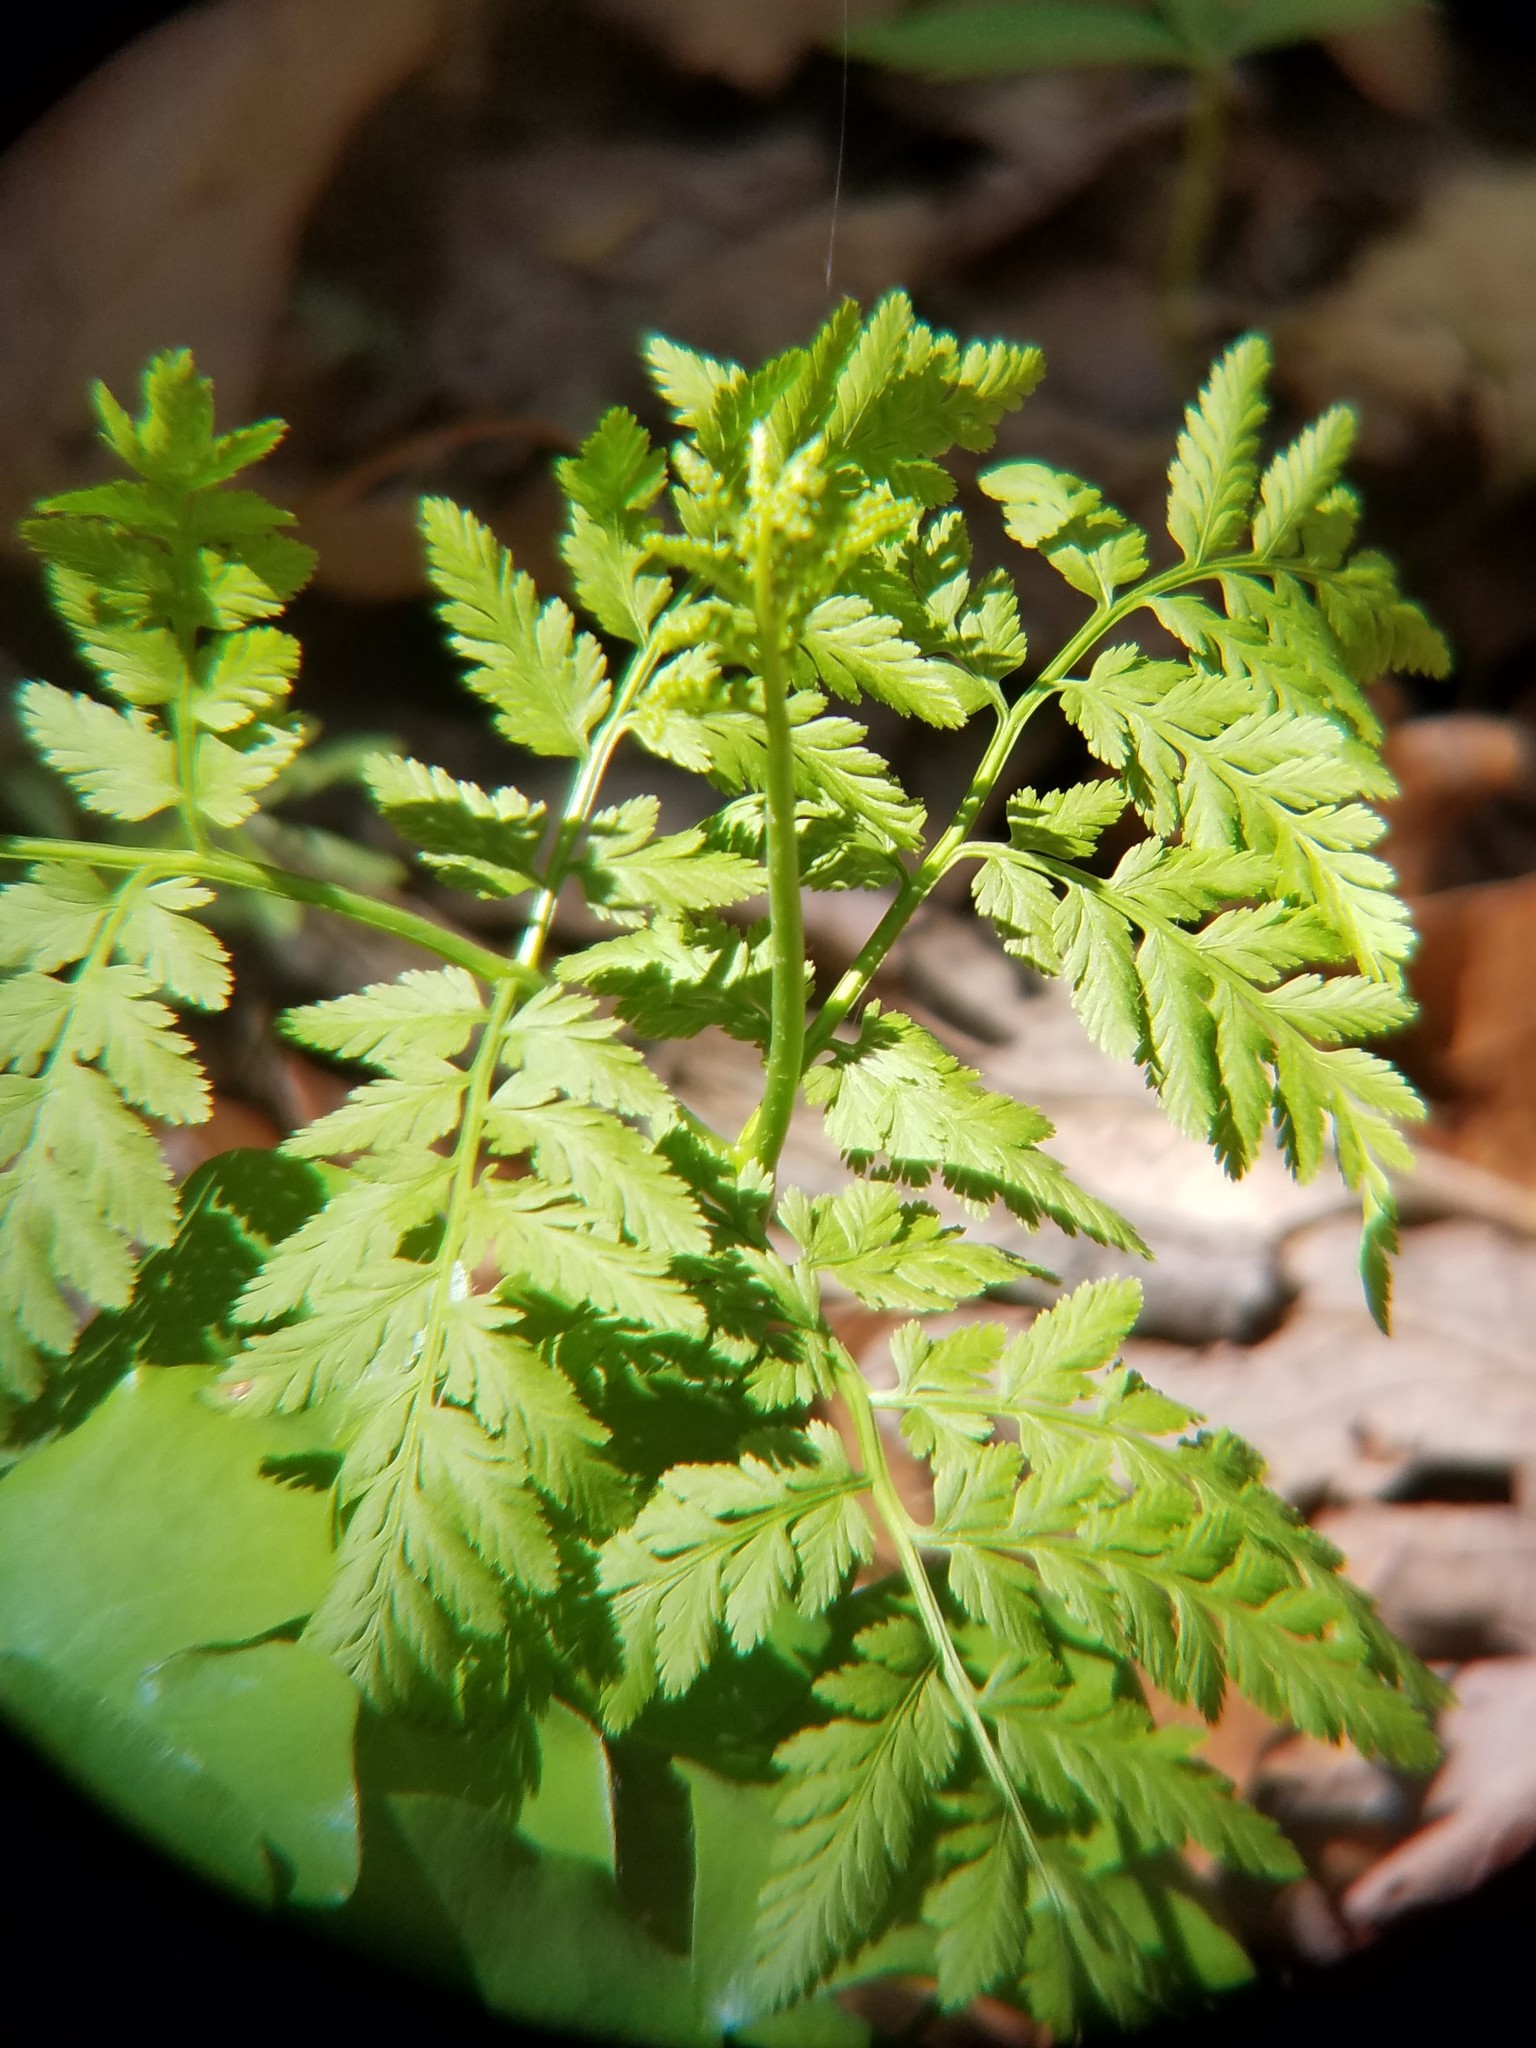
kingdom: Plantae
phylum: Tracheophyta
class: Polypodiopsida
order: Ophioglossales
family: Ophioglossaceae
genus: Botrypus
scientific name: Botrypus virginianus
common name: Common grapefern
